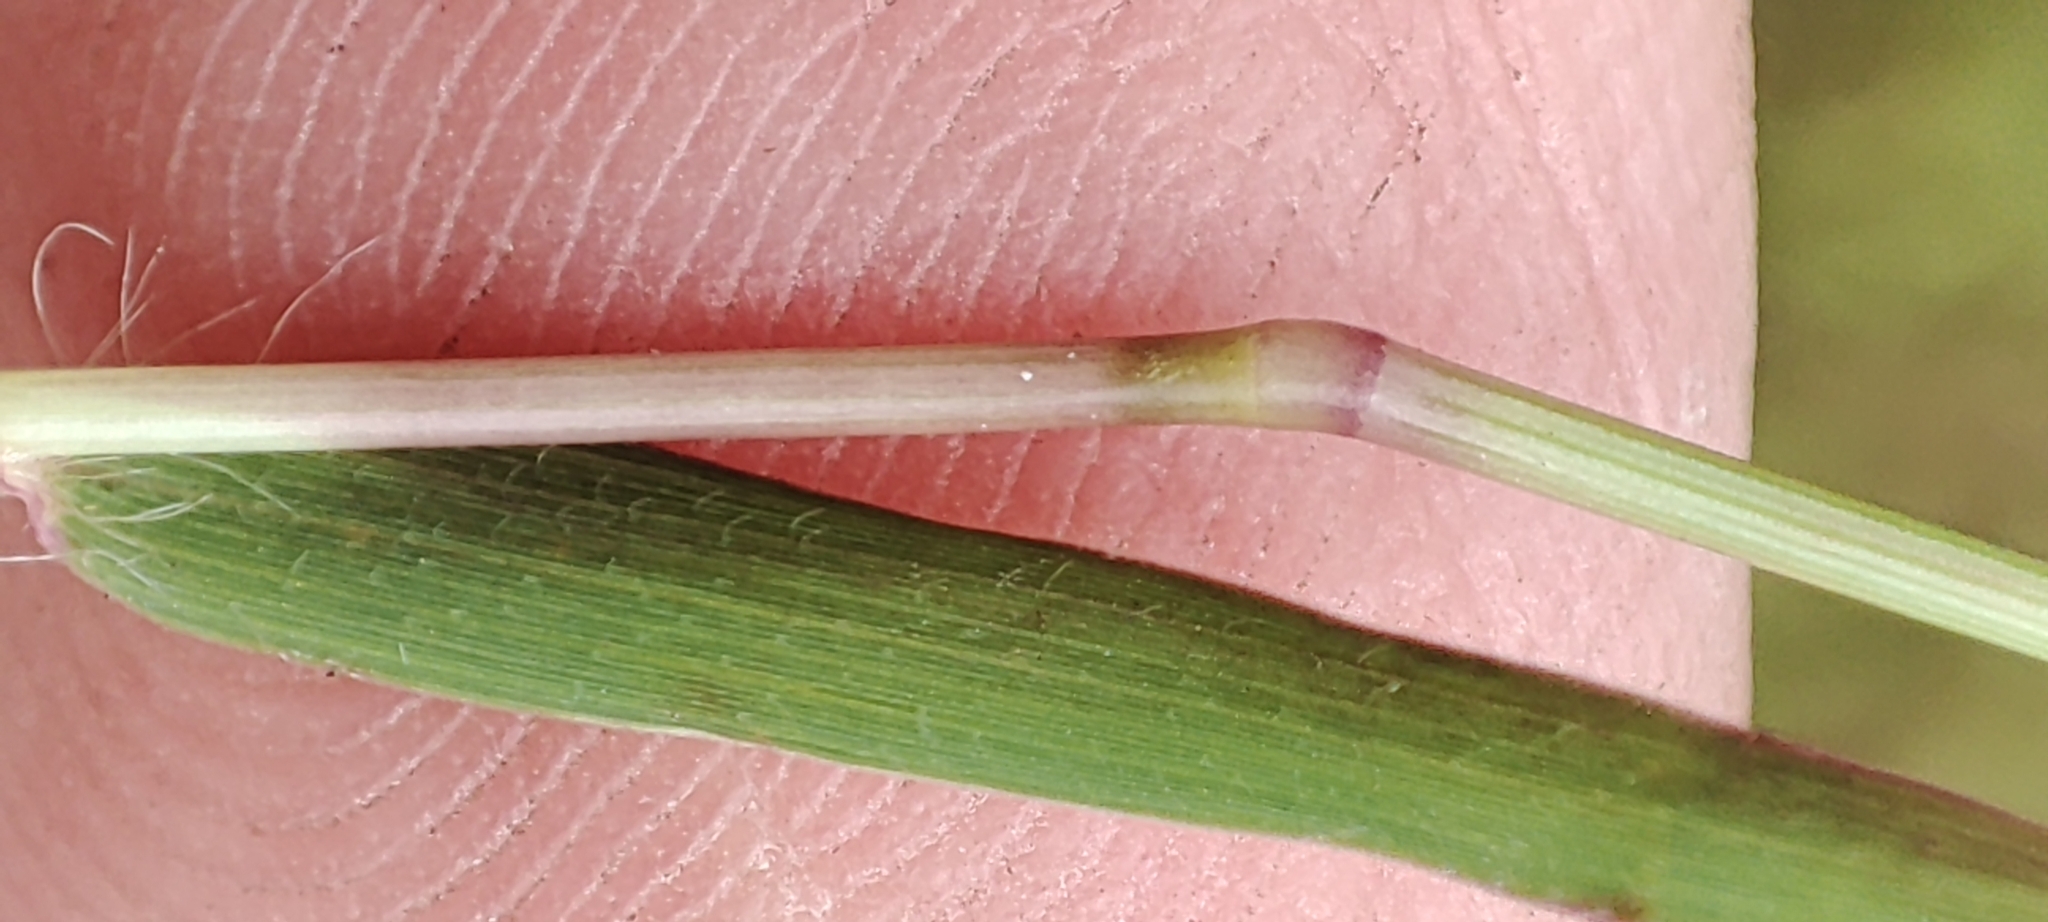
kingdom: Plantae
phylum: Tracheophyta
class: Liliopsida
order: Poales
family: Poaceae
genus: Polytrias
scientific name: Polytrias indica
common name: Indian murainagrass
